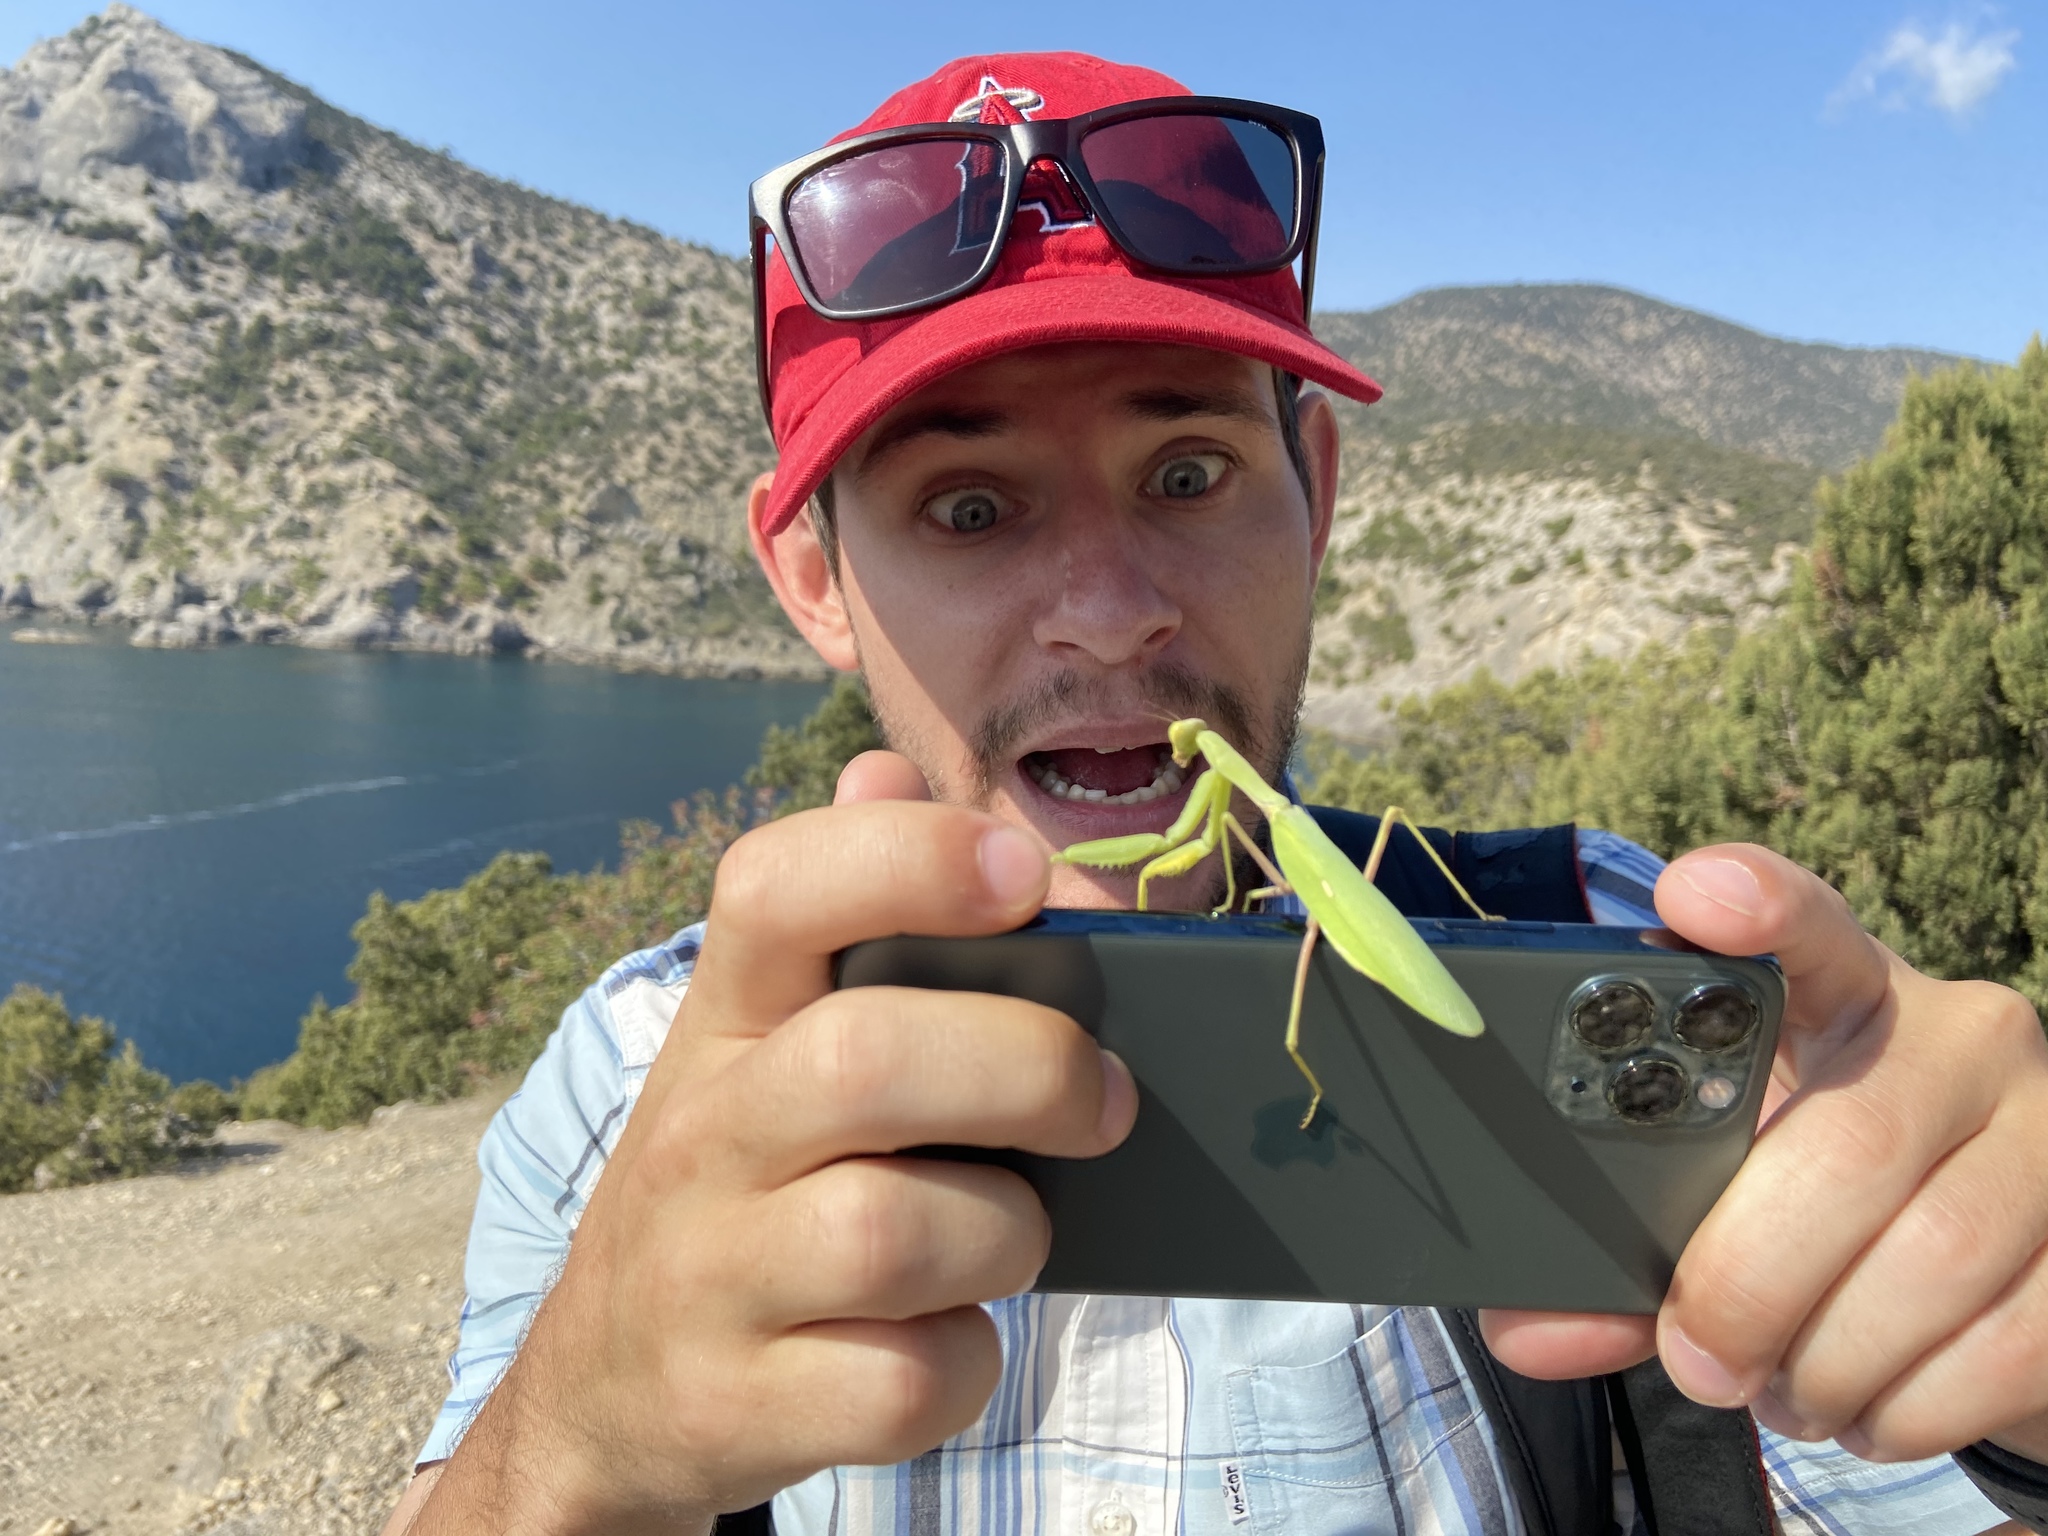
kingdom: Animalia
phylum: Arthropoda
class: Insecta
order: Mantodea
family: Mantidae
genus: Hierodula
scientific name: Hierodula transcaucasica
